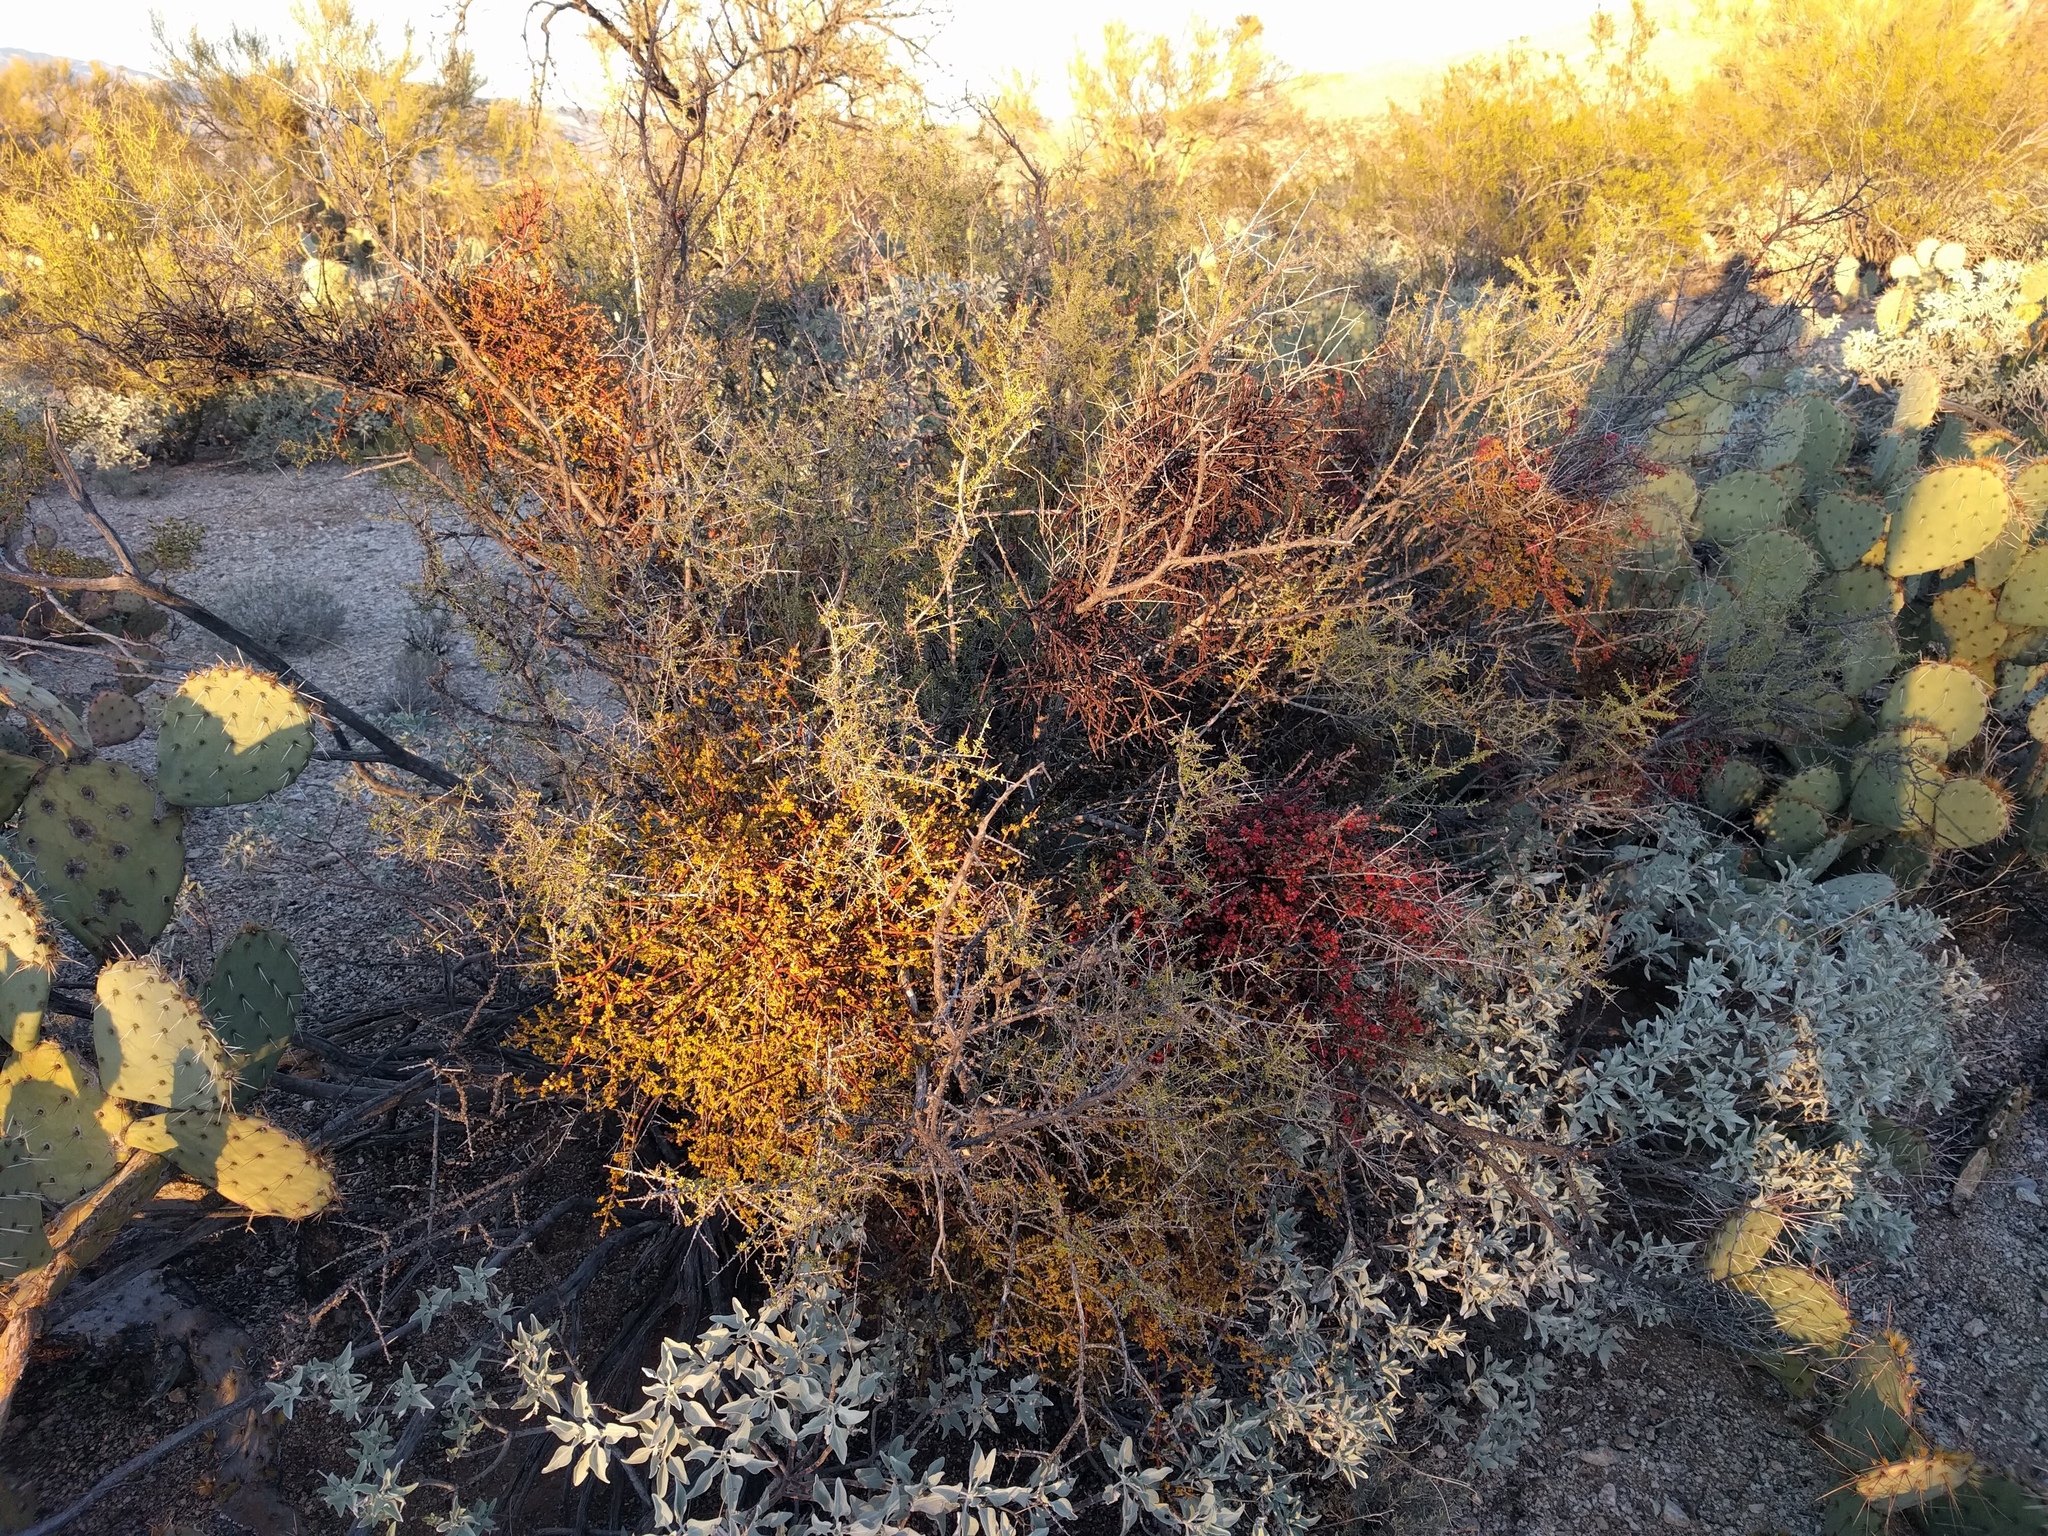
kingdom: Plantae
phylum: Tracheophyta
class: Magnoliopsida
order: Santalales
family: Viscaceae
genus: Phoradendron
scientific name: Phoradendron californicum
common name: Acacia mistletoe
